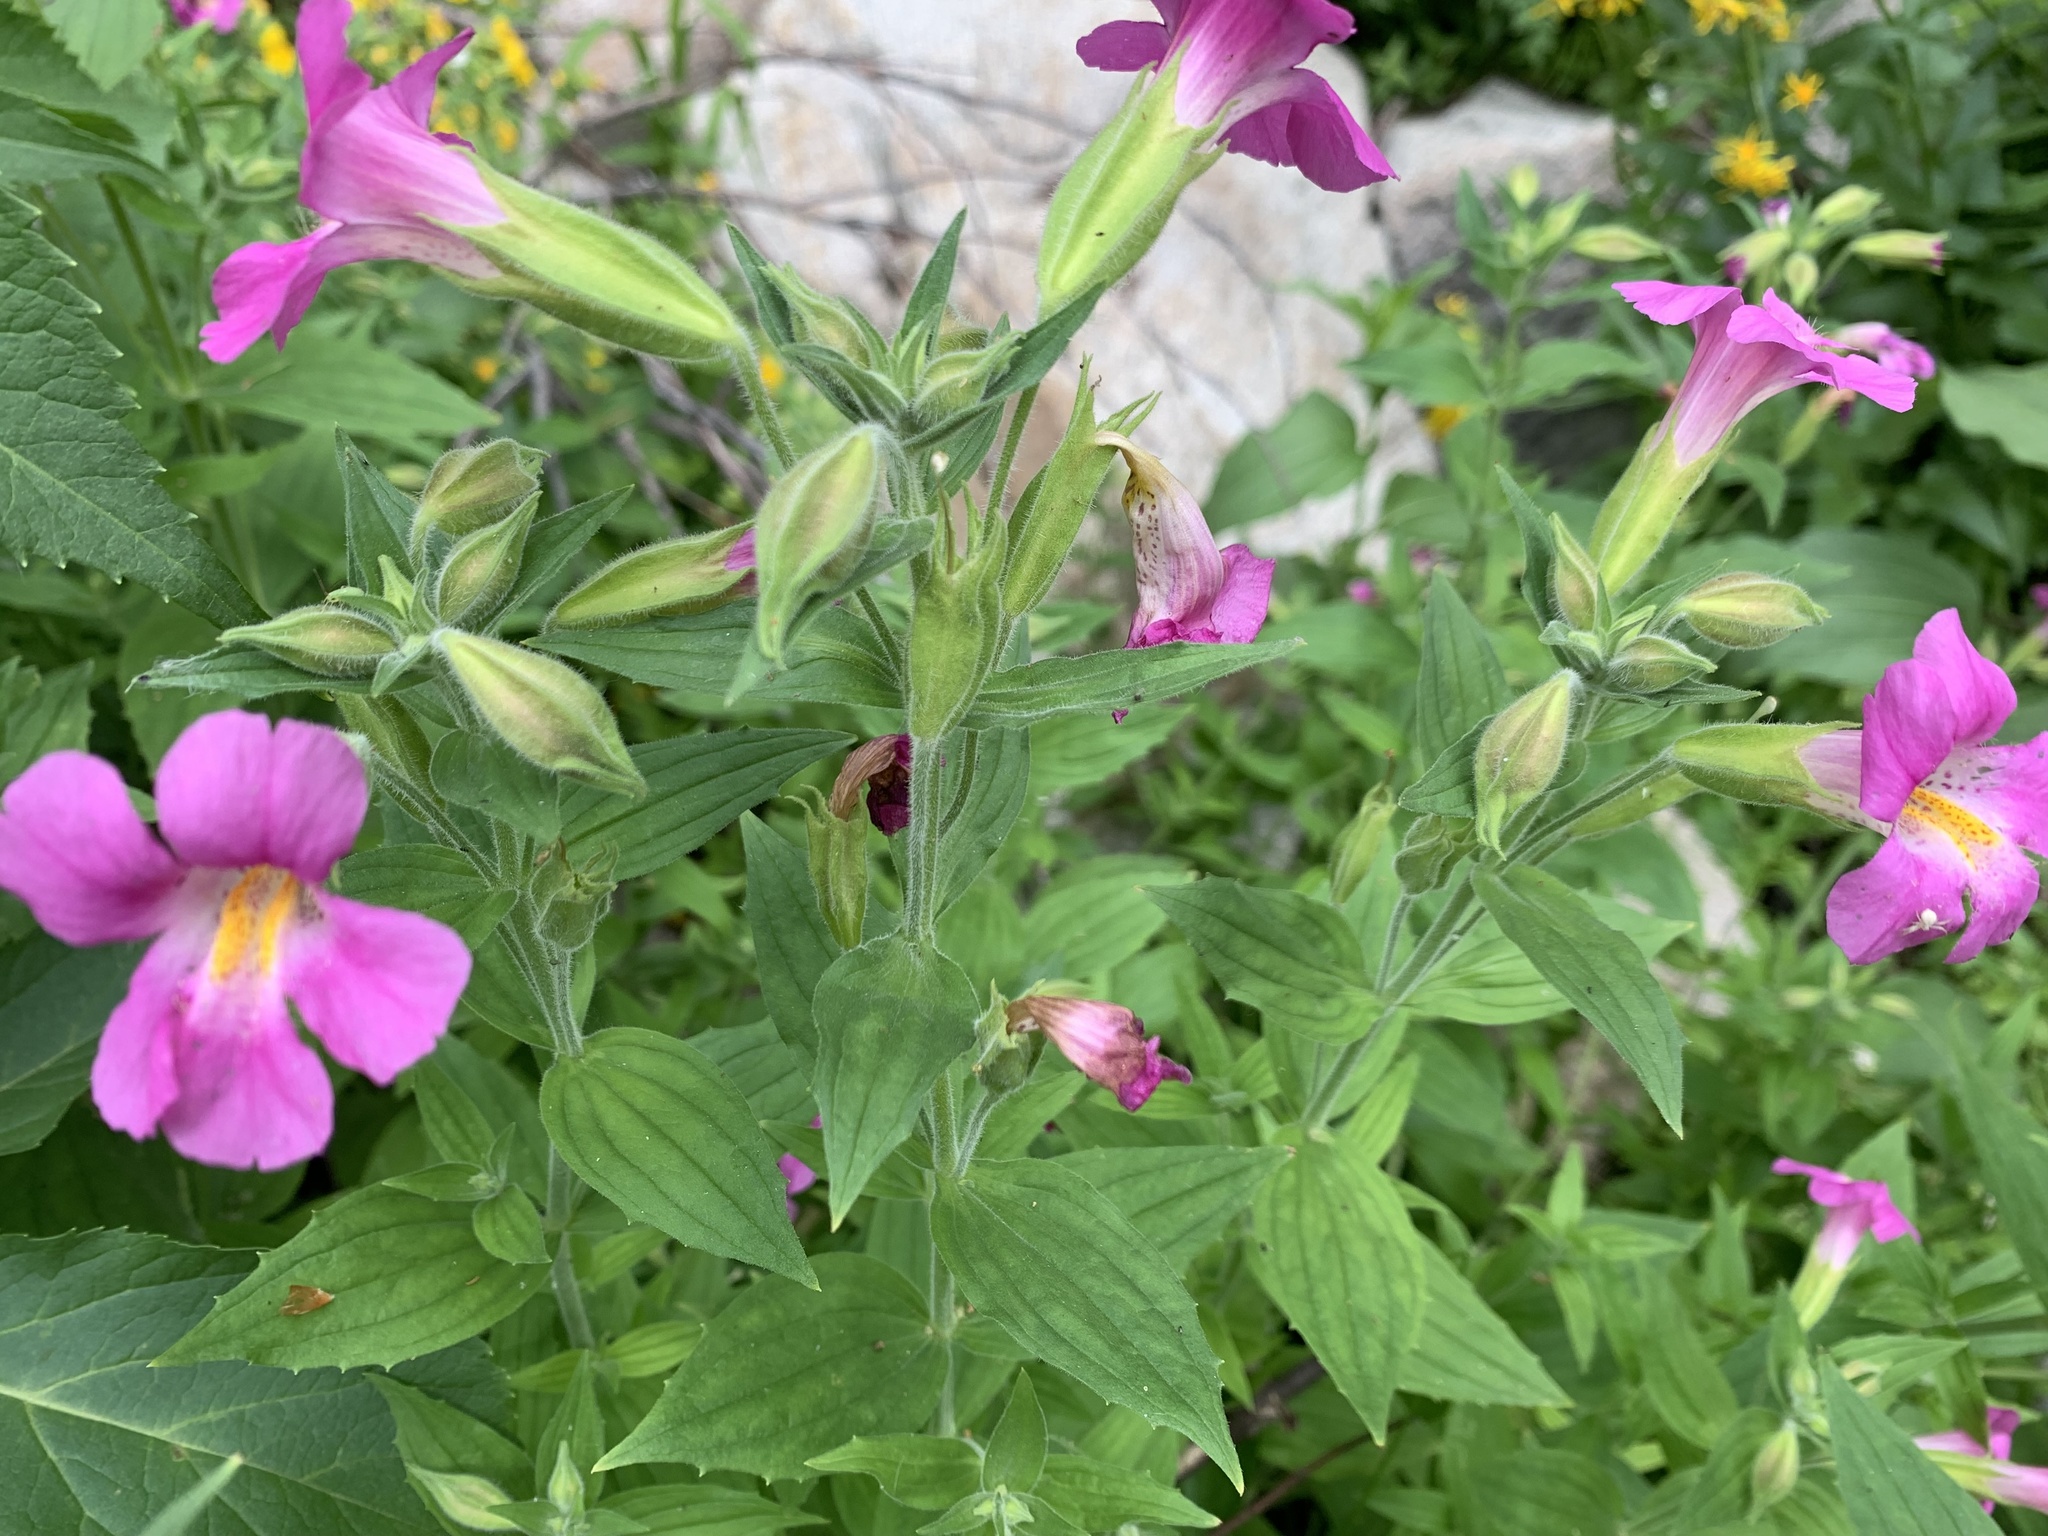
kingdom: Plantae
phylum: Tracheophyta
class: Magnoliopsida
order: Lamiales
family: Phrymaceae
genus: Erythranthe
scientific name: Erythranthe lewisii
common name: Lewis's monkey-flower
